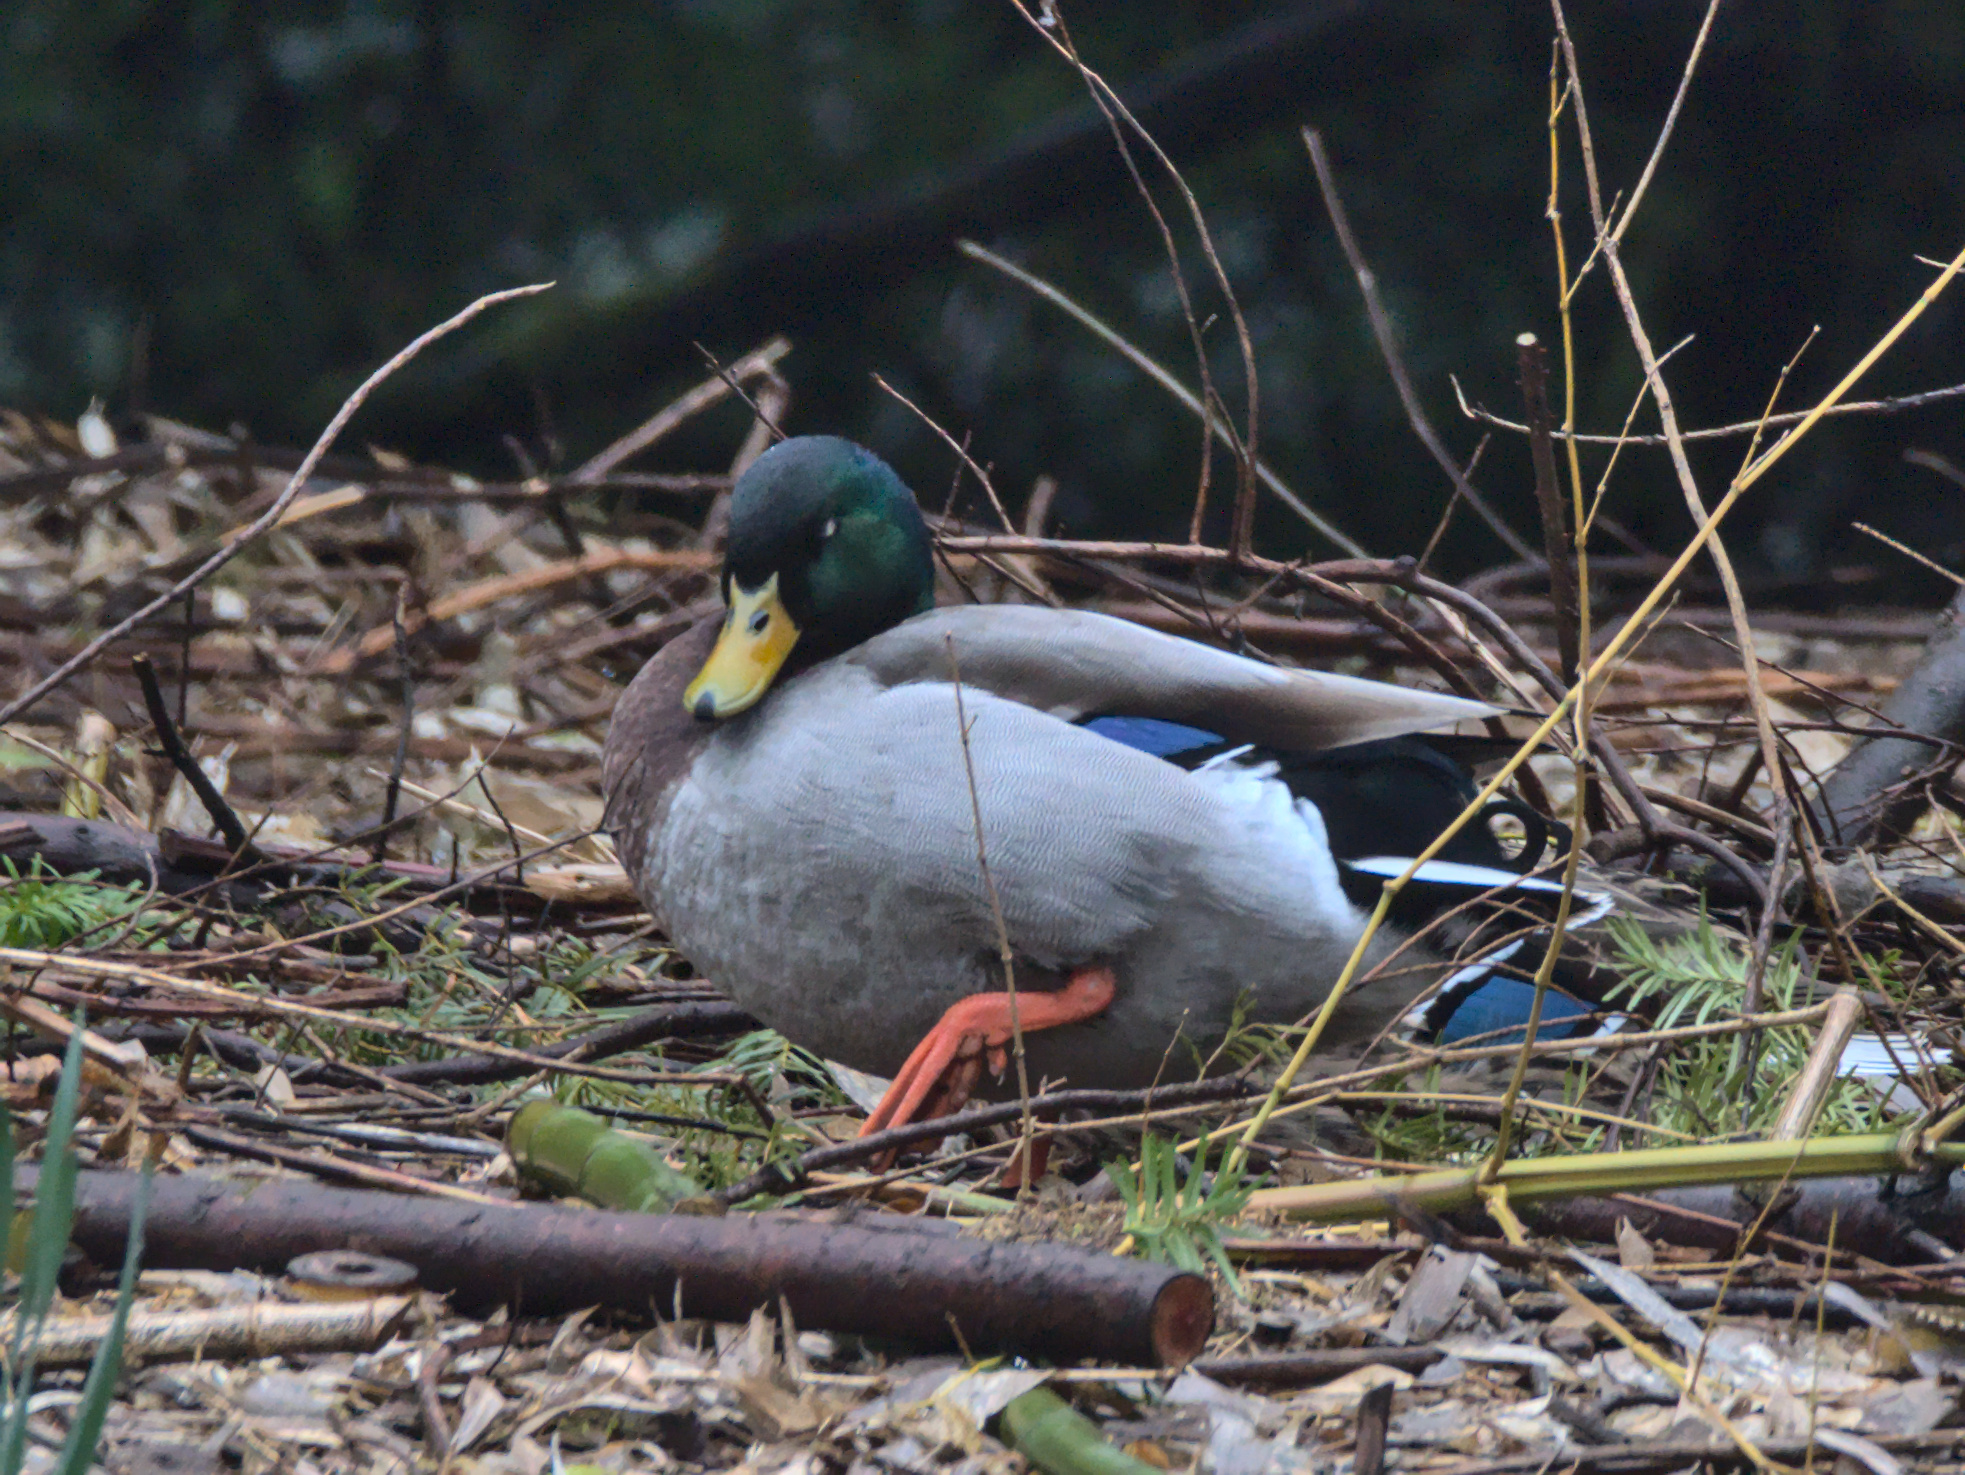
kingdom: Animalia
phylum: Chordata
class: Aves
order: Anseriformes
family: Anatidae
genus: Anas
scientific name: Anas platyrhynchos
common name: Mallard
